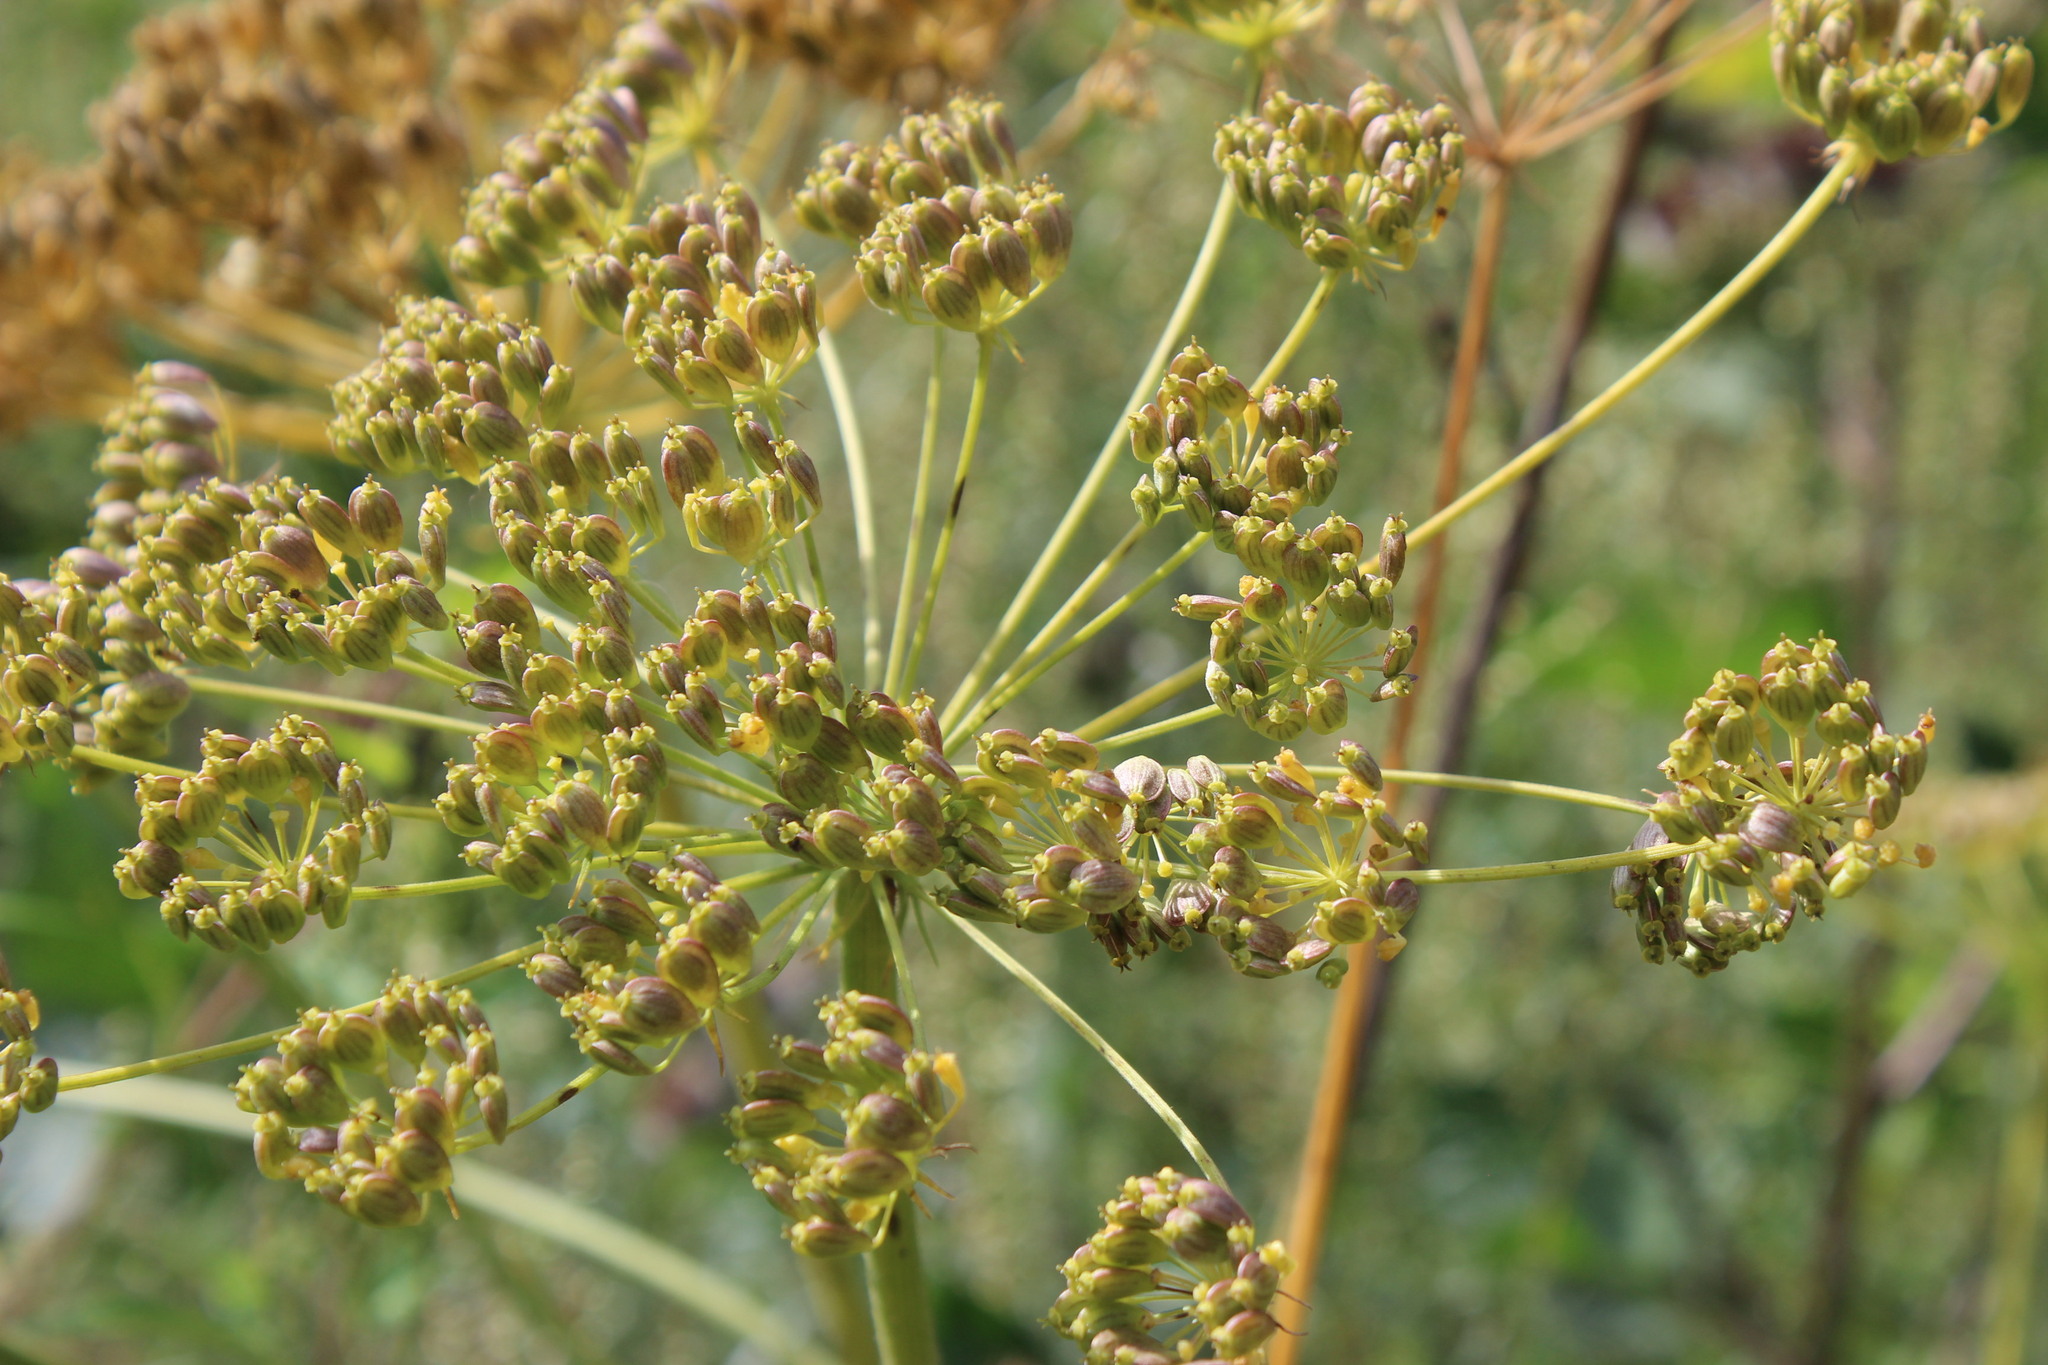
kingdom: Plantae
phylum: Tracheophyta
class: Magnoliopsida
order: Apiales
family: Apiaceae
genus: Heracleum
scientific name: Heracleum sphondylium
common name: Hogweed
